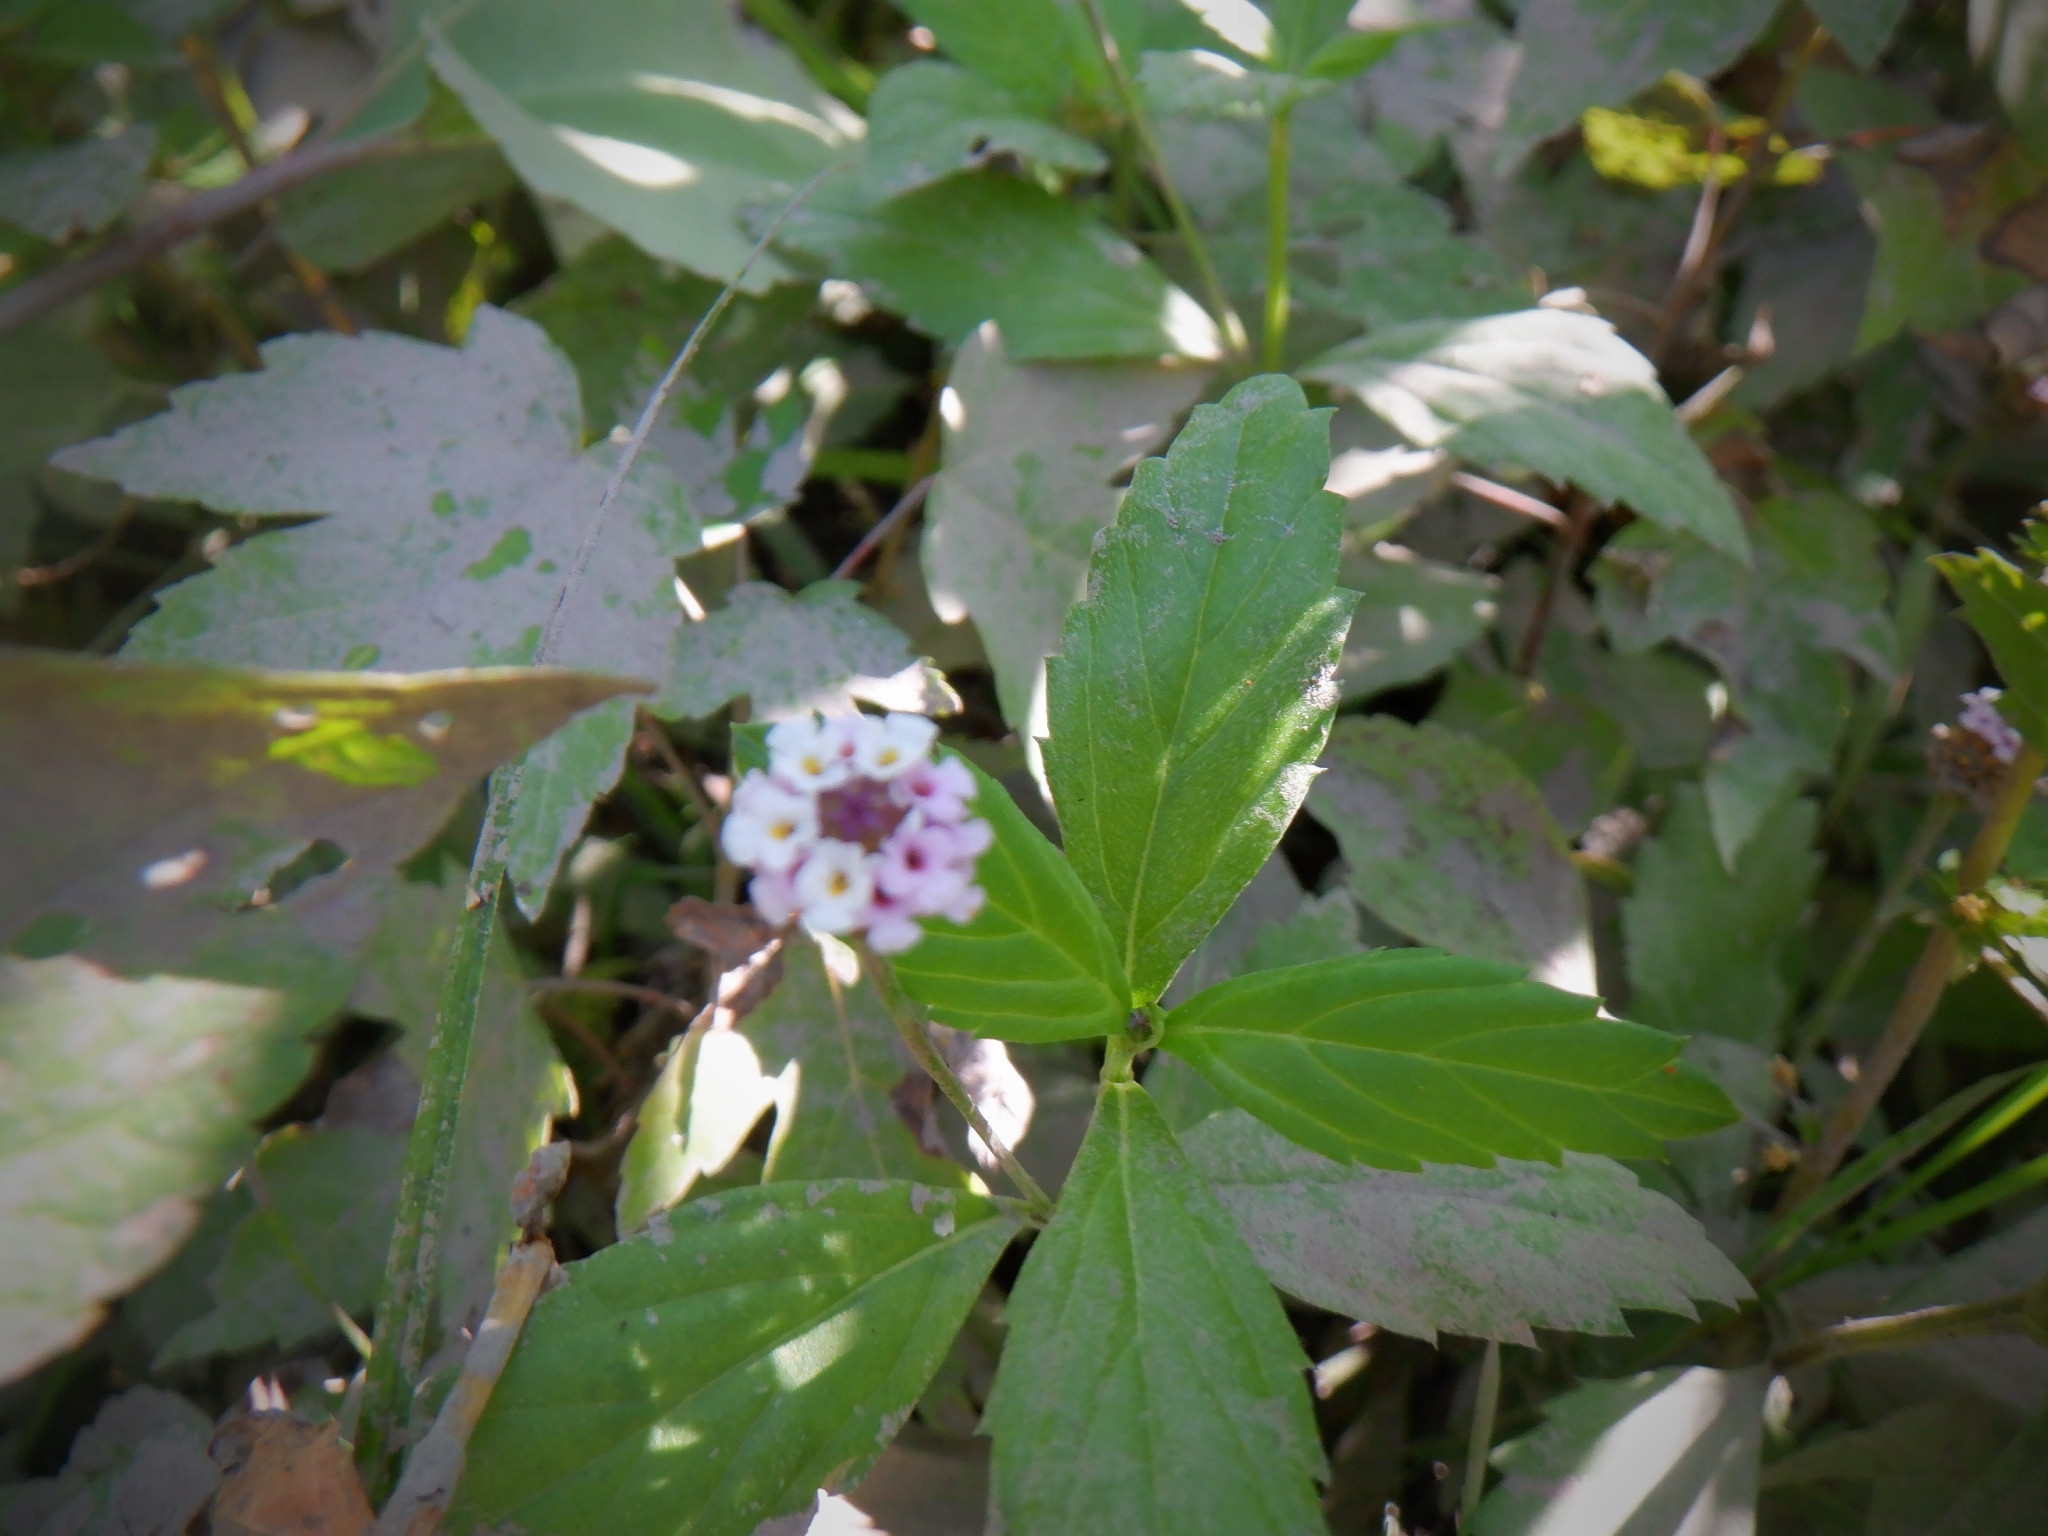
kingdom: Plantae
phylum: Tracheophyta
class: Magnoliopsida
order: Lamiales
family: Verbenaceae
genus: Phyla
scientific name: Phyla lanceolata
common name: Northern fogfruit
